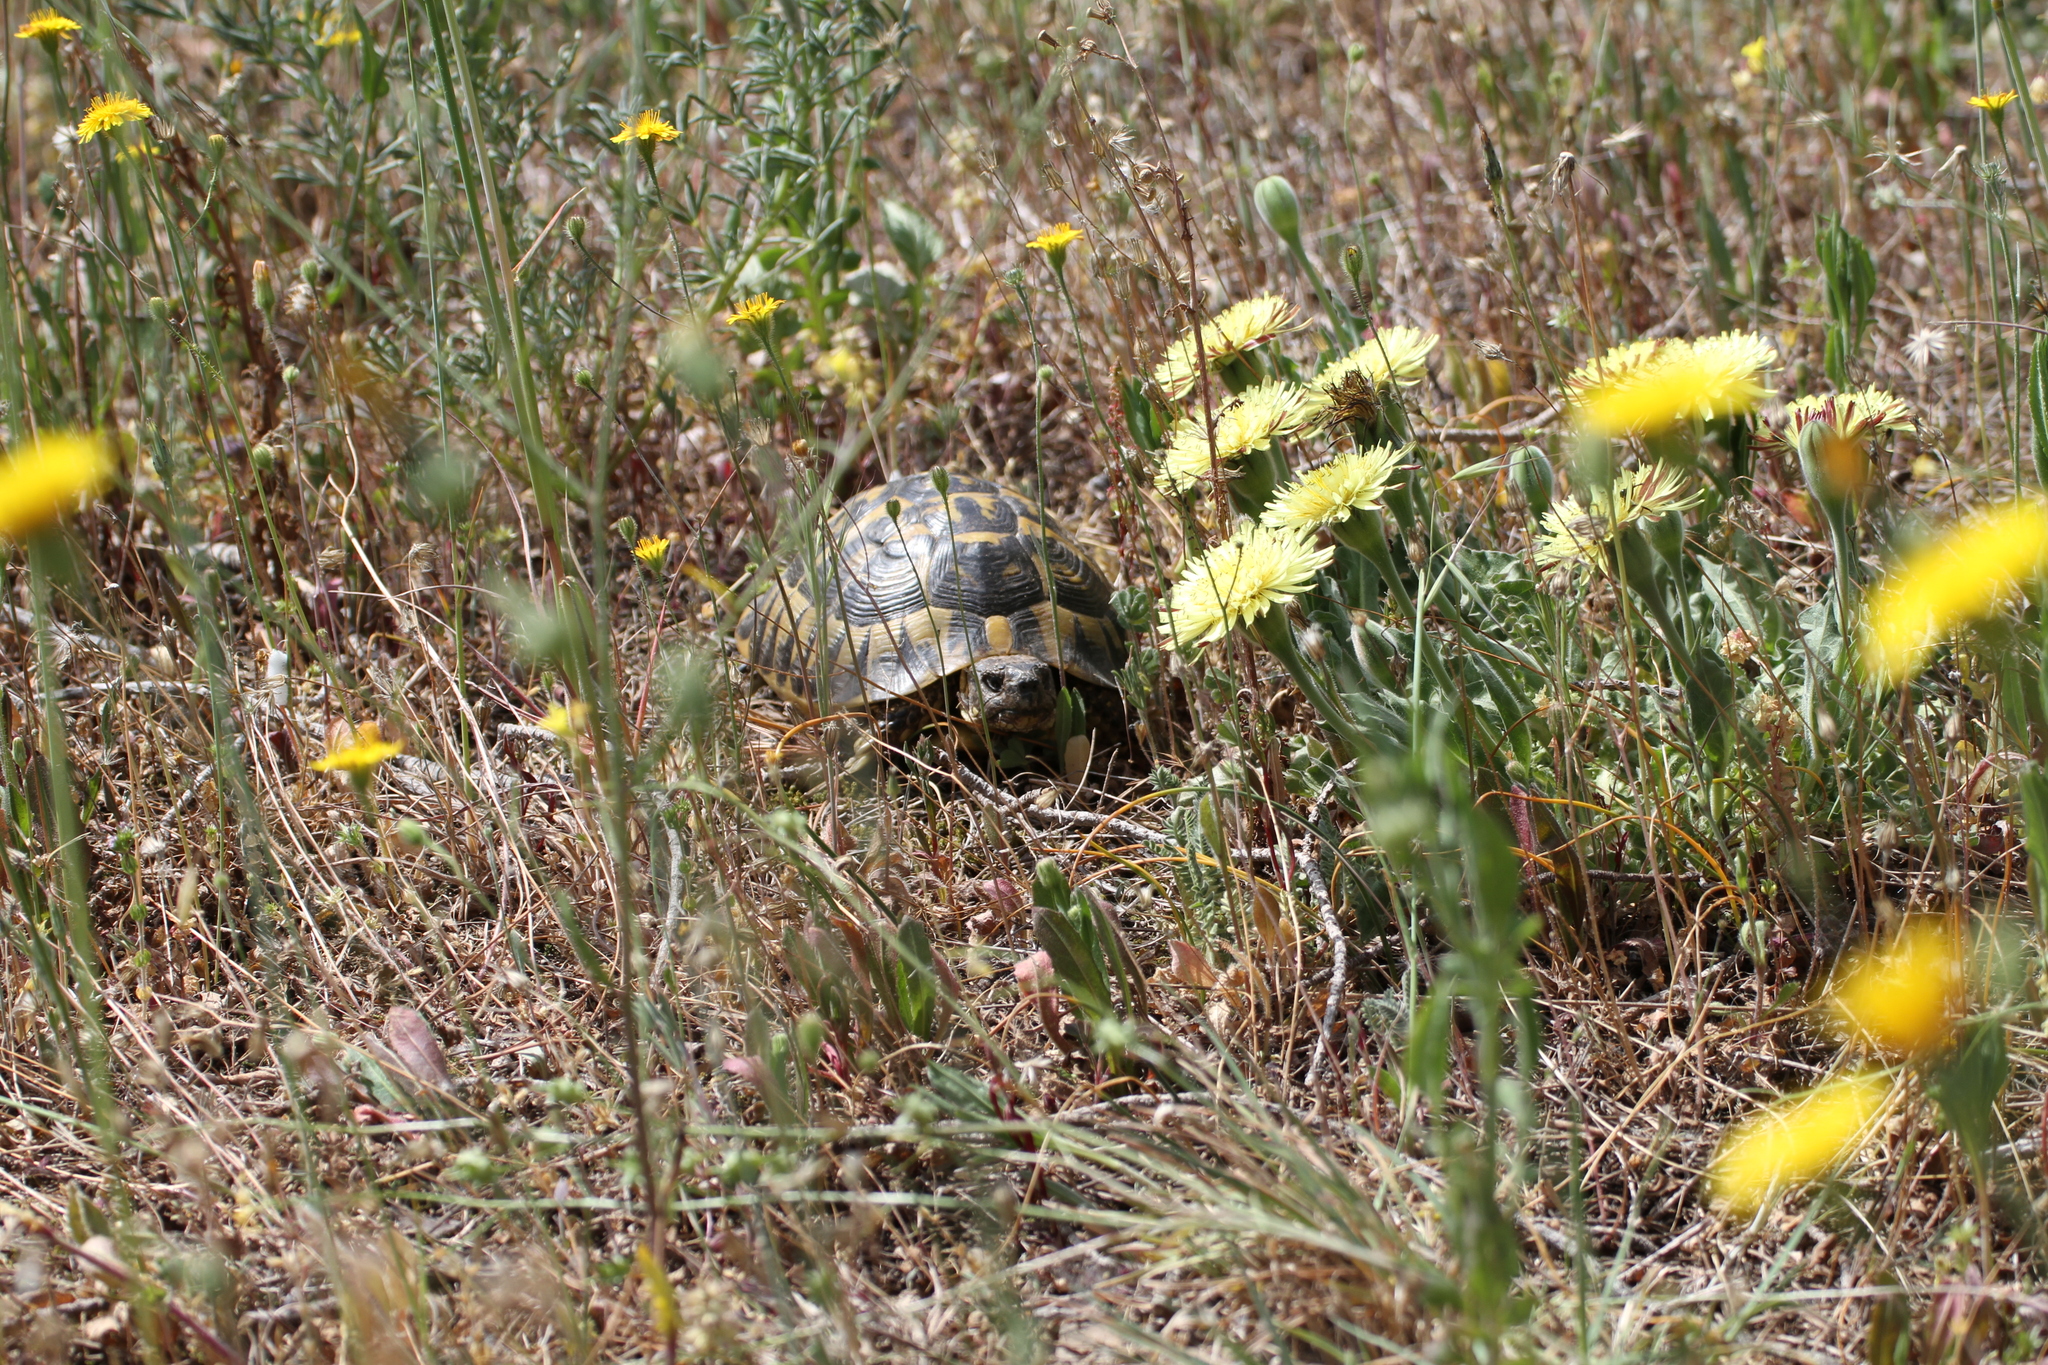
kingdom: Animalia
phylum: Chordata
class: Testudines
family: Testudinidae
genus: Testudo
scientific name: Testudo hermanni
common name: Hermann's tortoise
